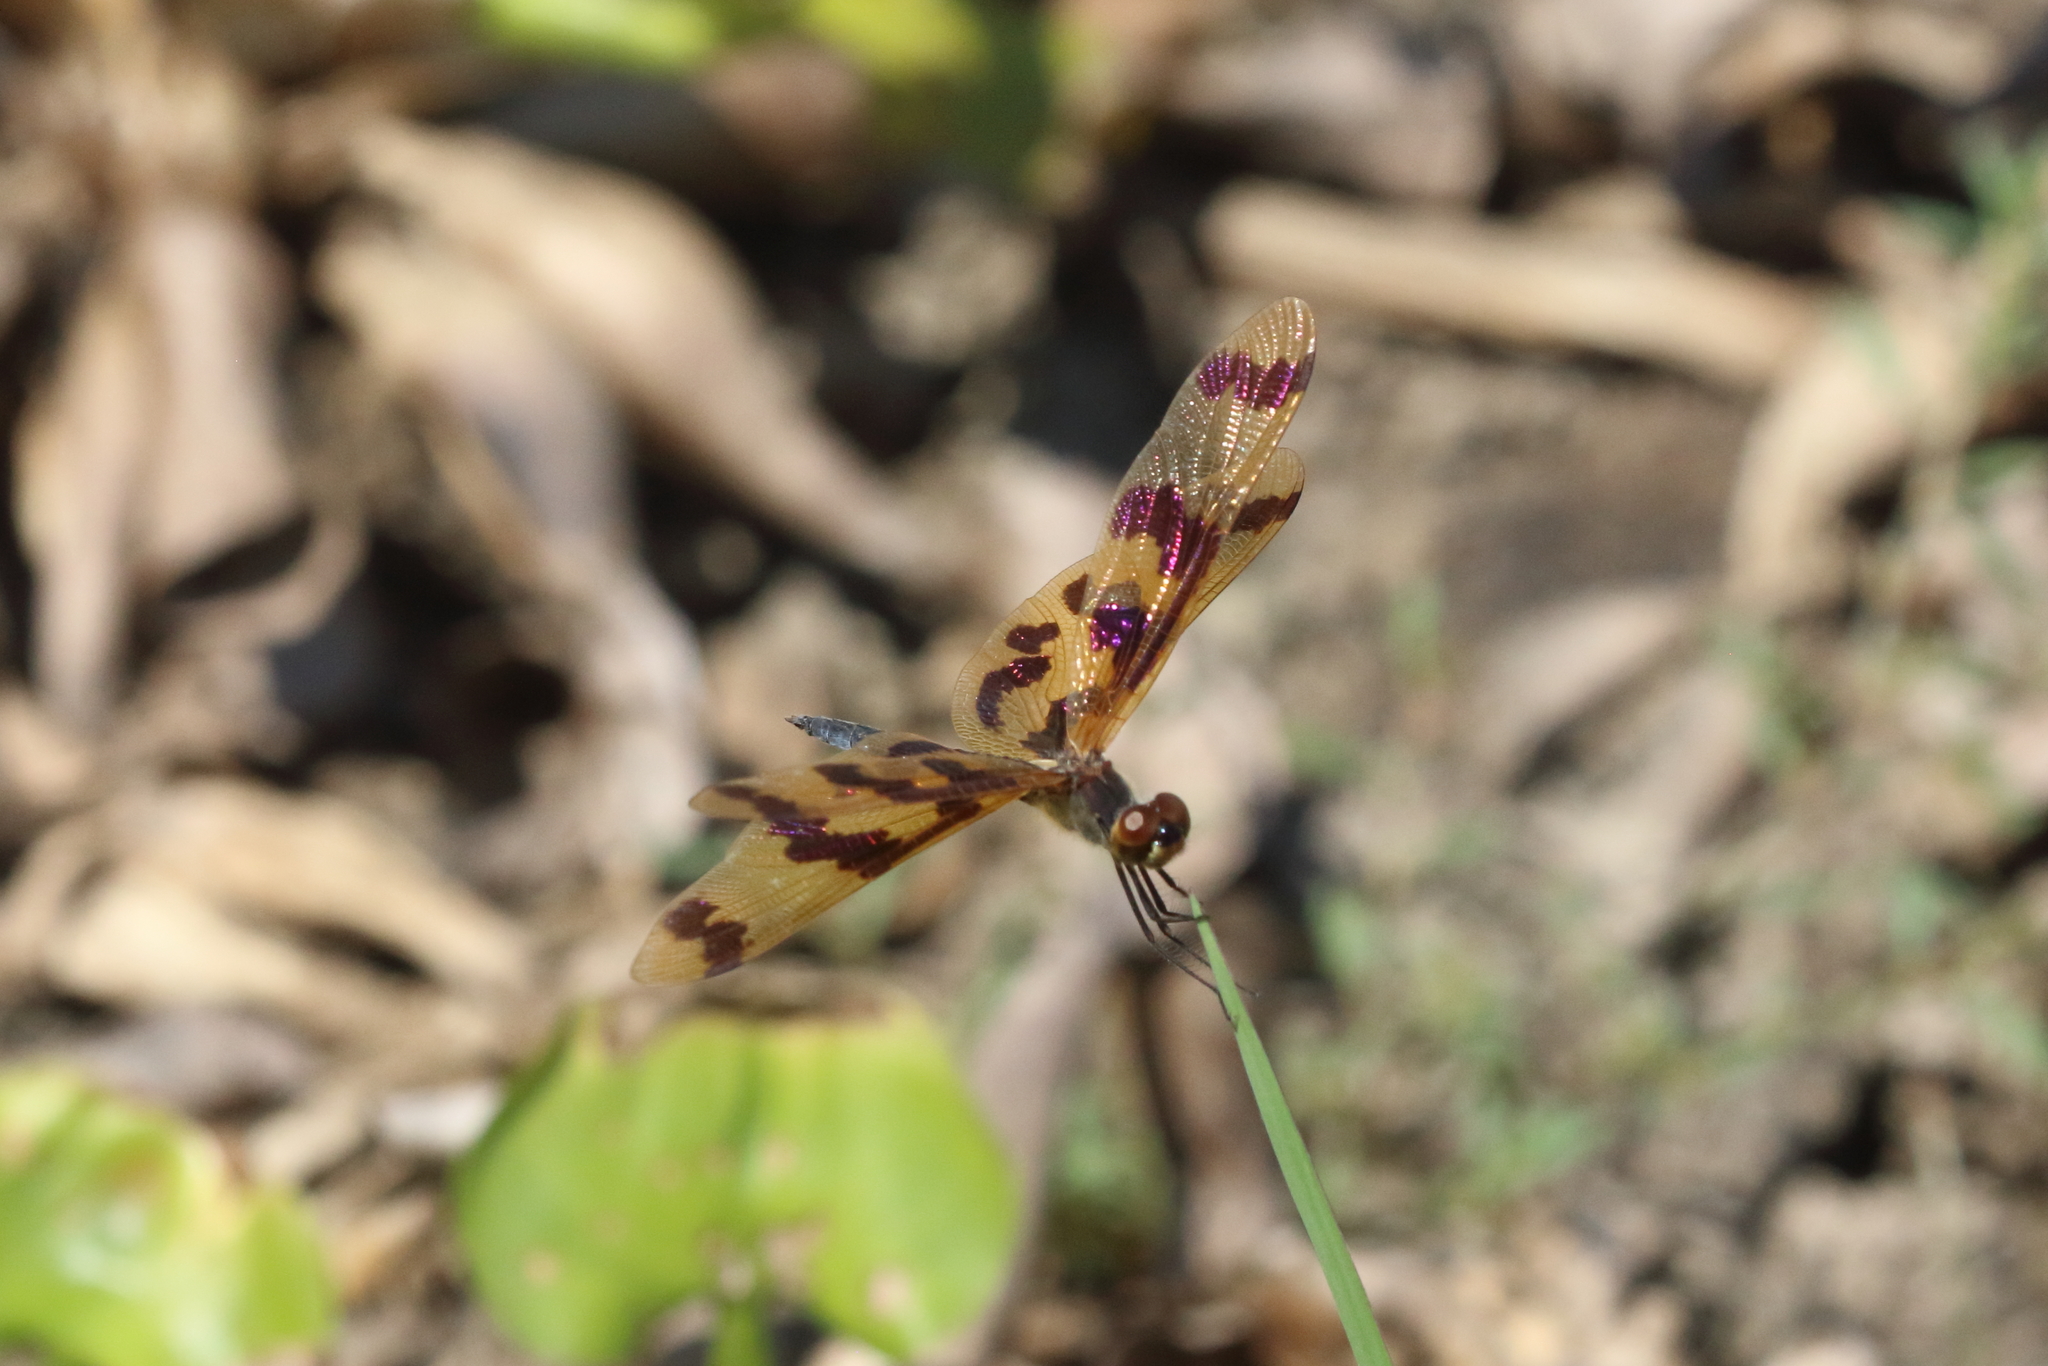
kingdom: Animalia
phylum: Arthropoda
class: Insecta
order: Odonata
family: Libellulidae
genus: Rhyothemis
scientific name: Rhyothemis graphiptera
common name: Graphic flutterer
